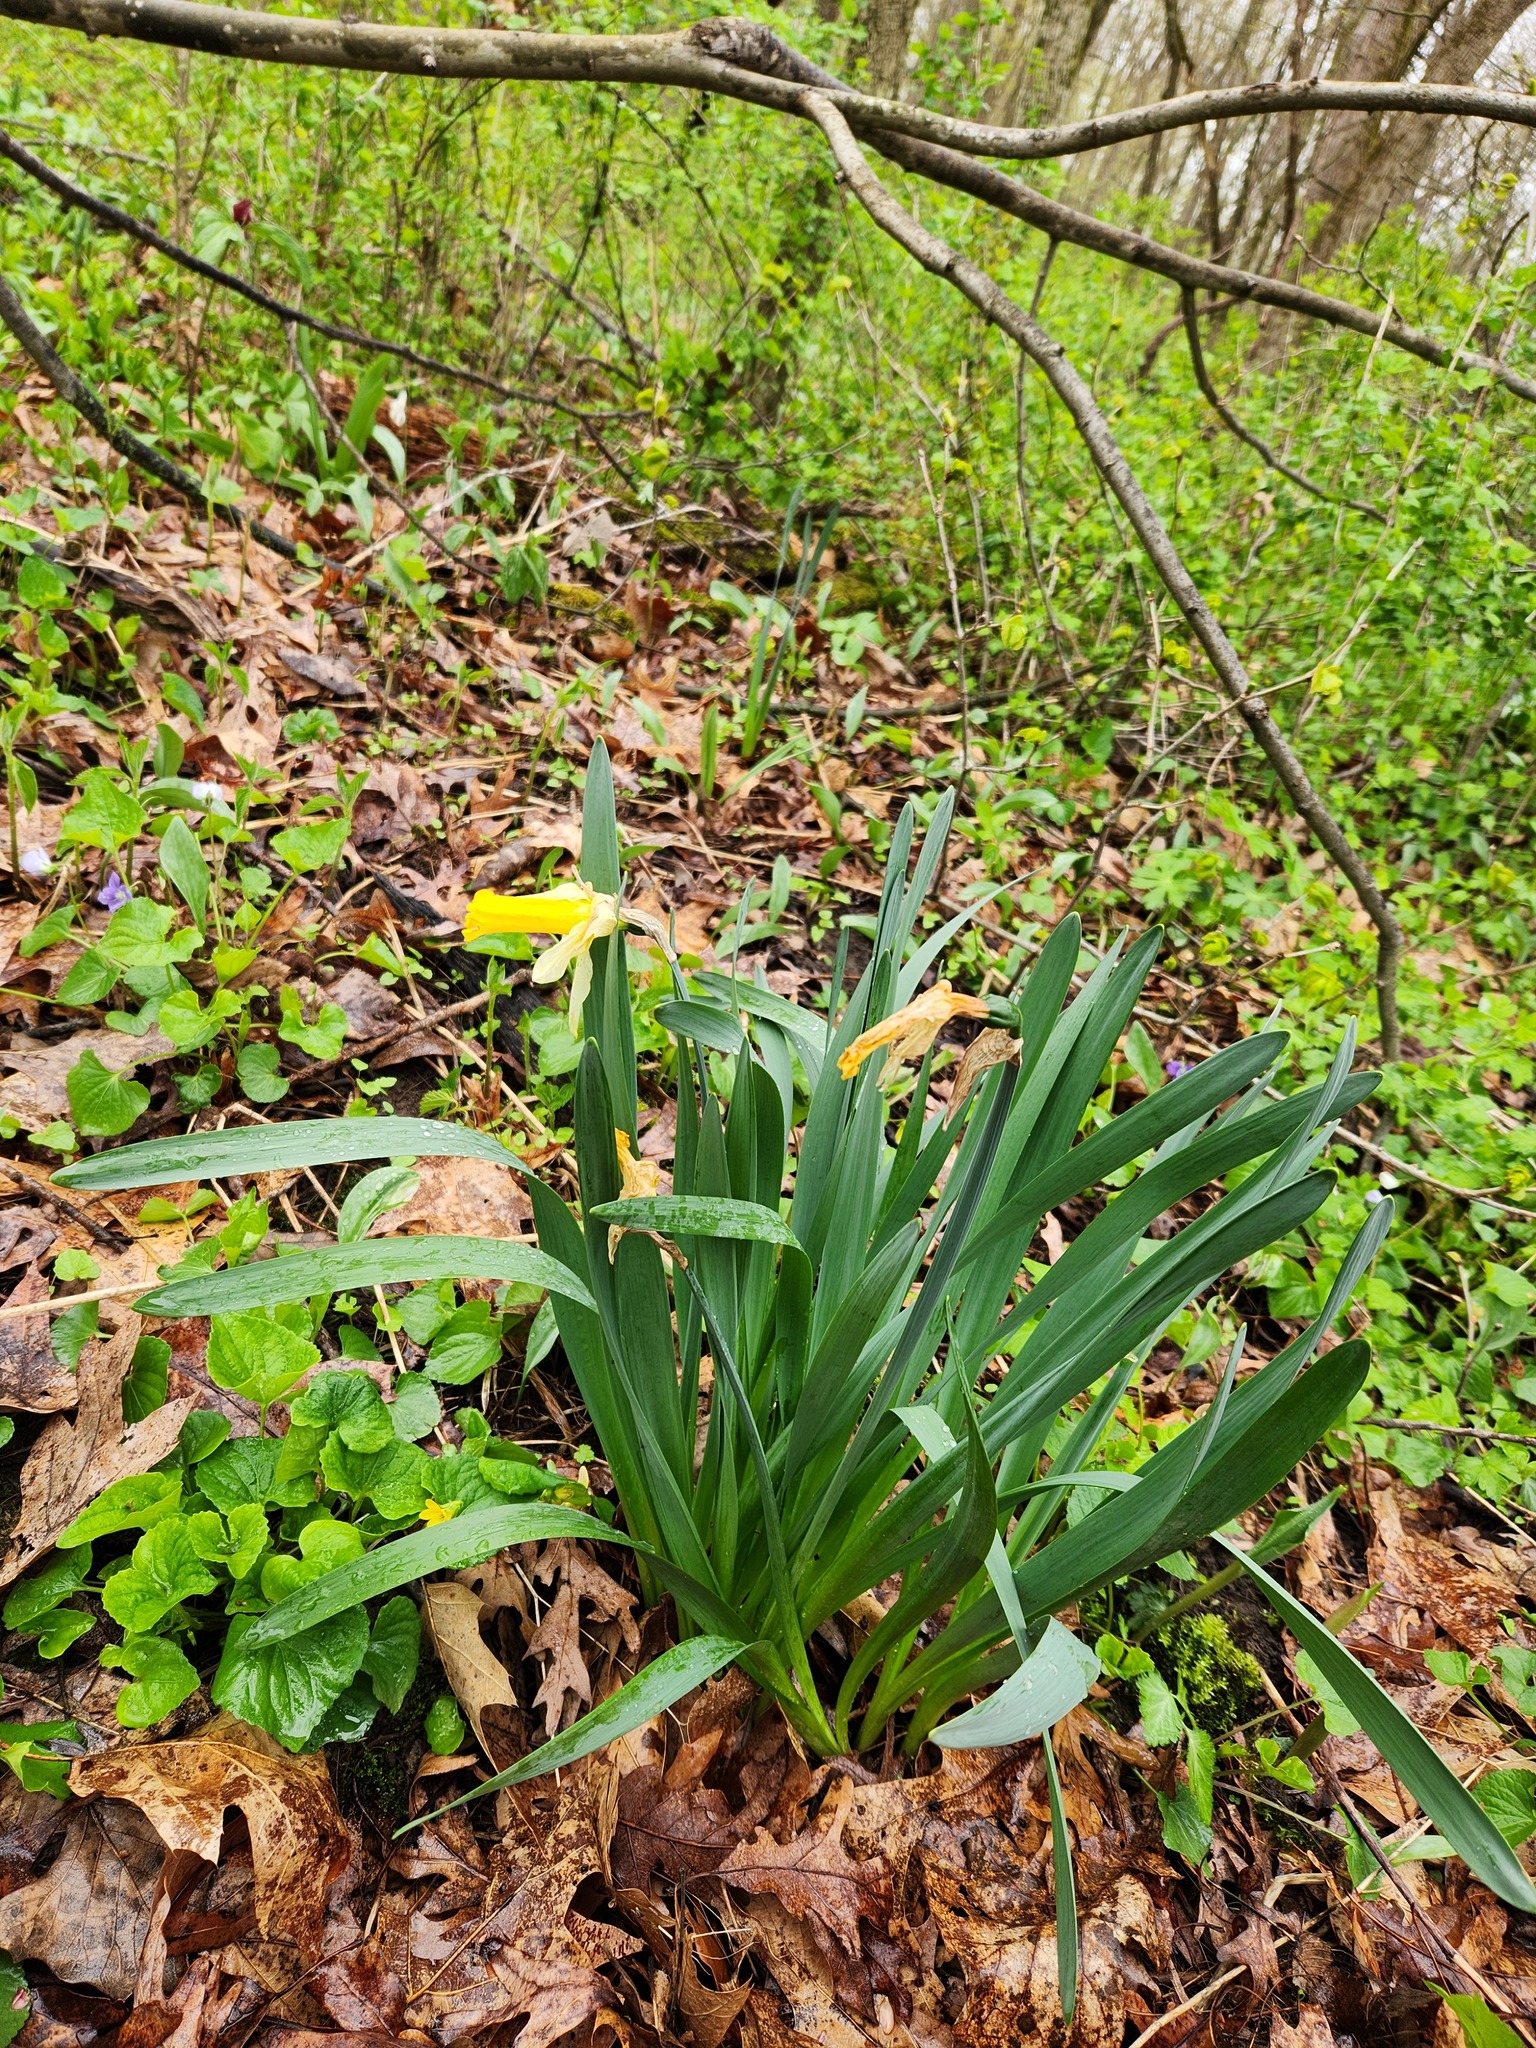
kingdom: Plantae
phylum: Tracheophyta
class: Liliopsida
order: Asparagales
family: Amaryllidaceae
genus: Narcissus
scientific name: Narcissus pseudonarcissus
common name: Daffodil
